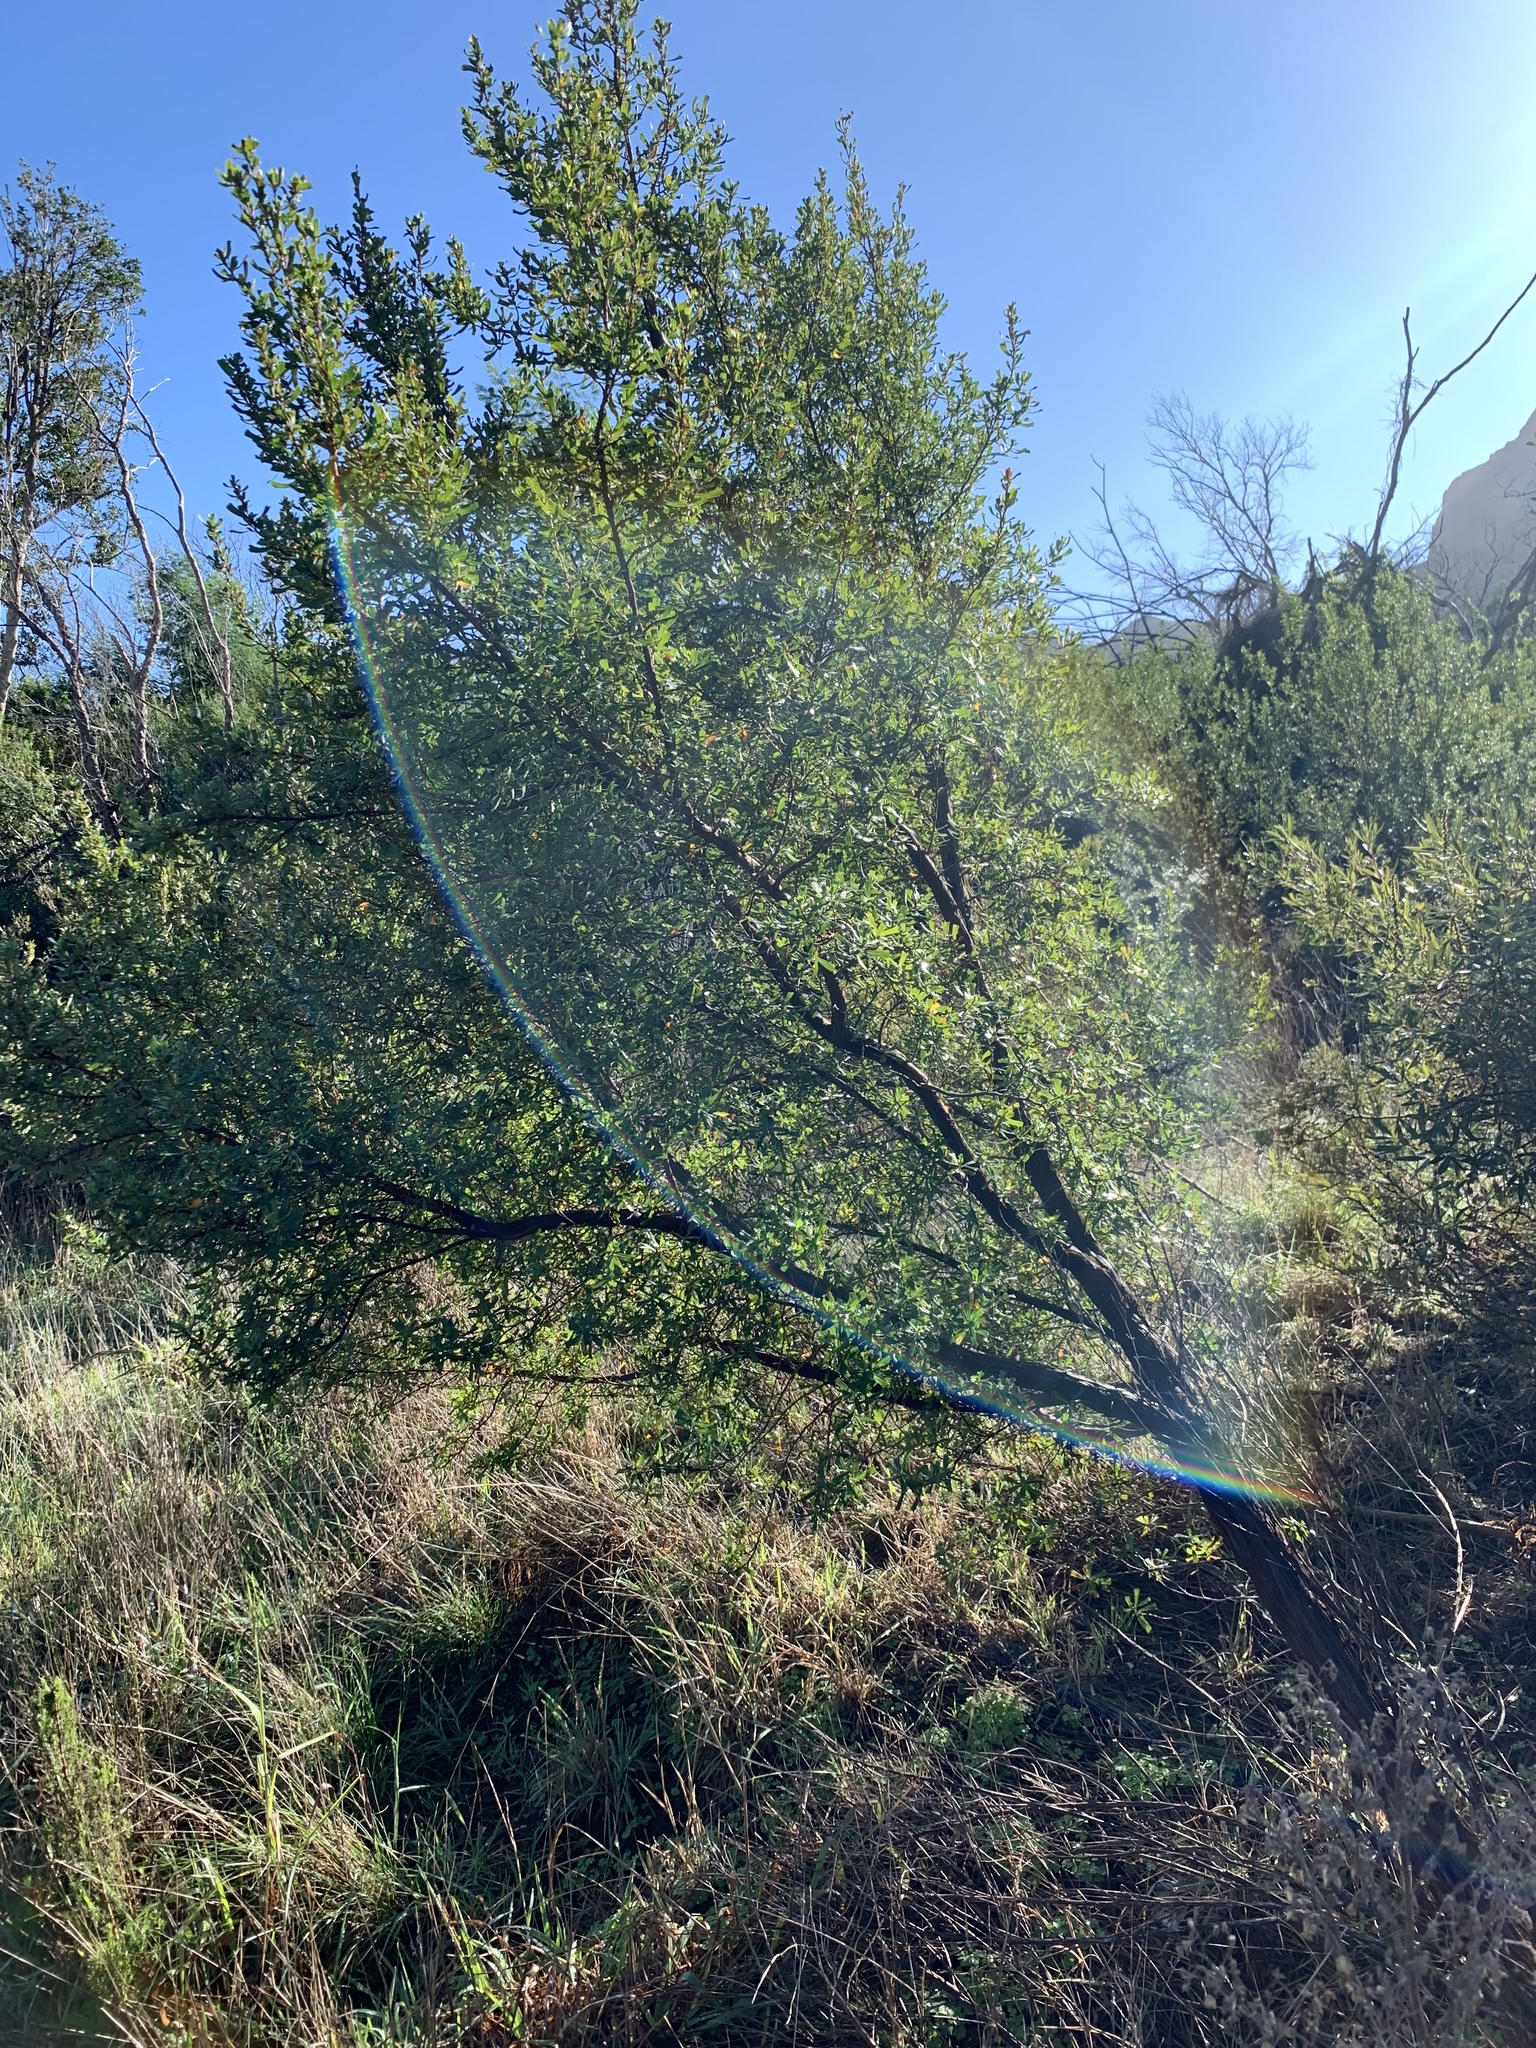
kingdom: Plantae
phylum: Tracheophyta
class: Magnoliopsida
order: Rosales
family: Rosaceae
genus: Cliffortia
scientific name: Cliffortia cuneata
